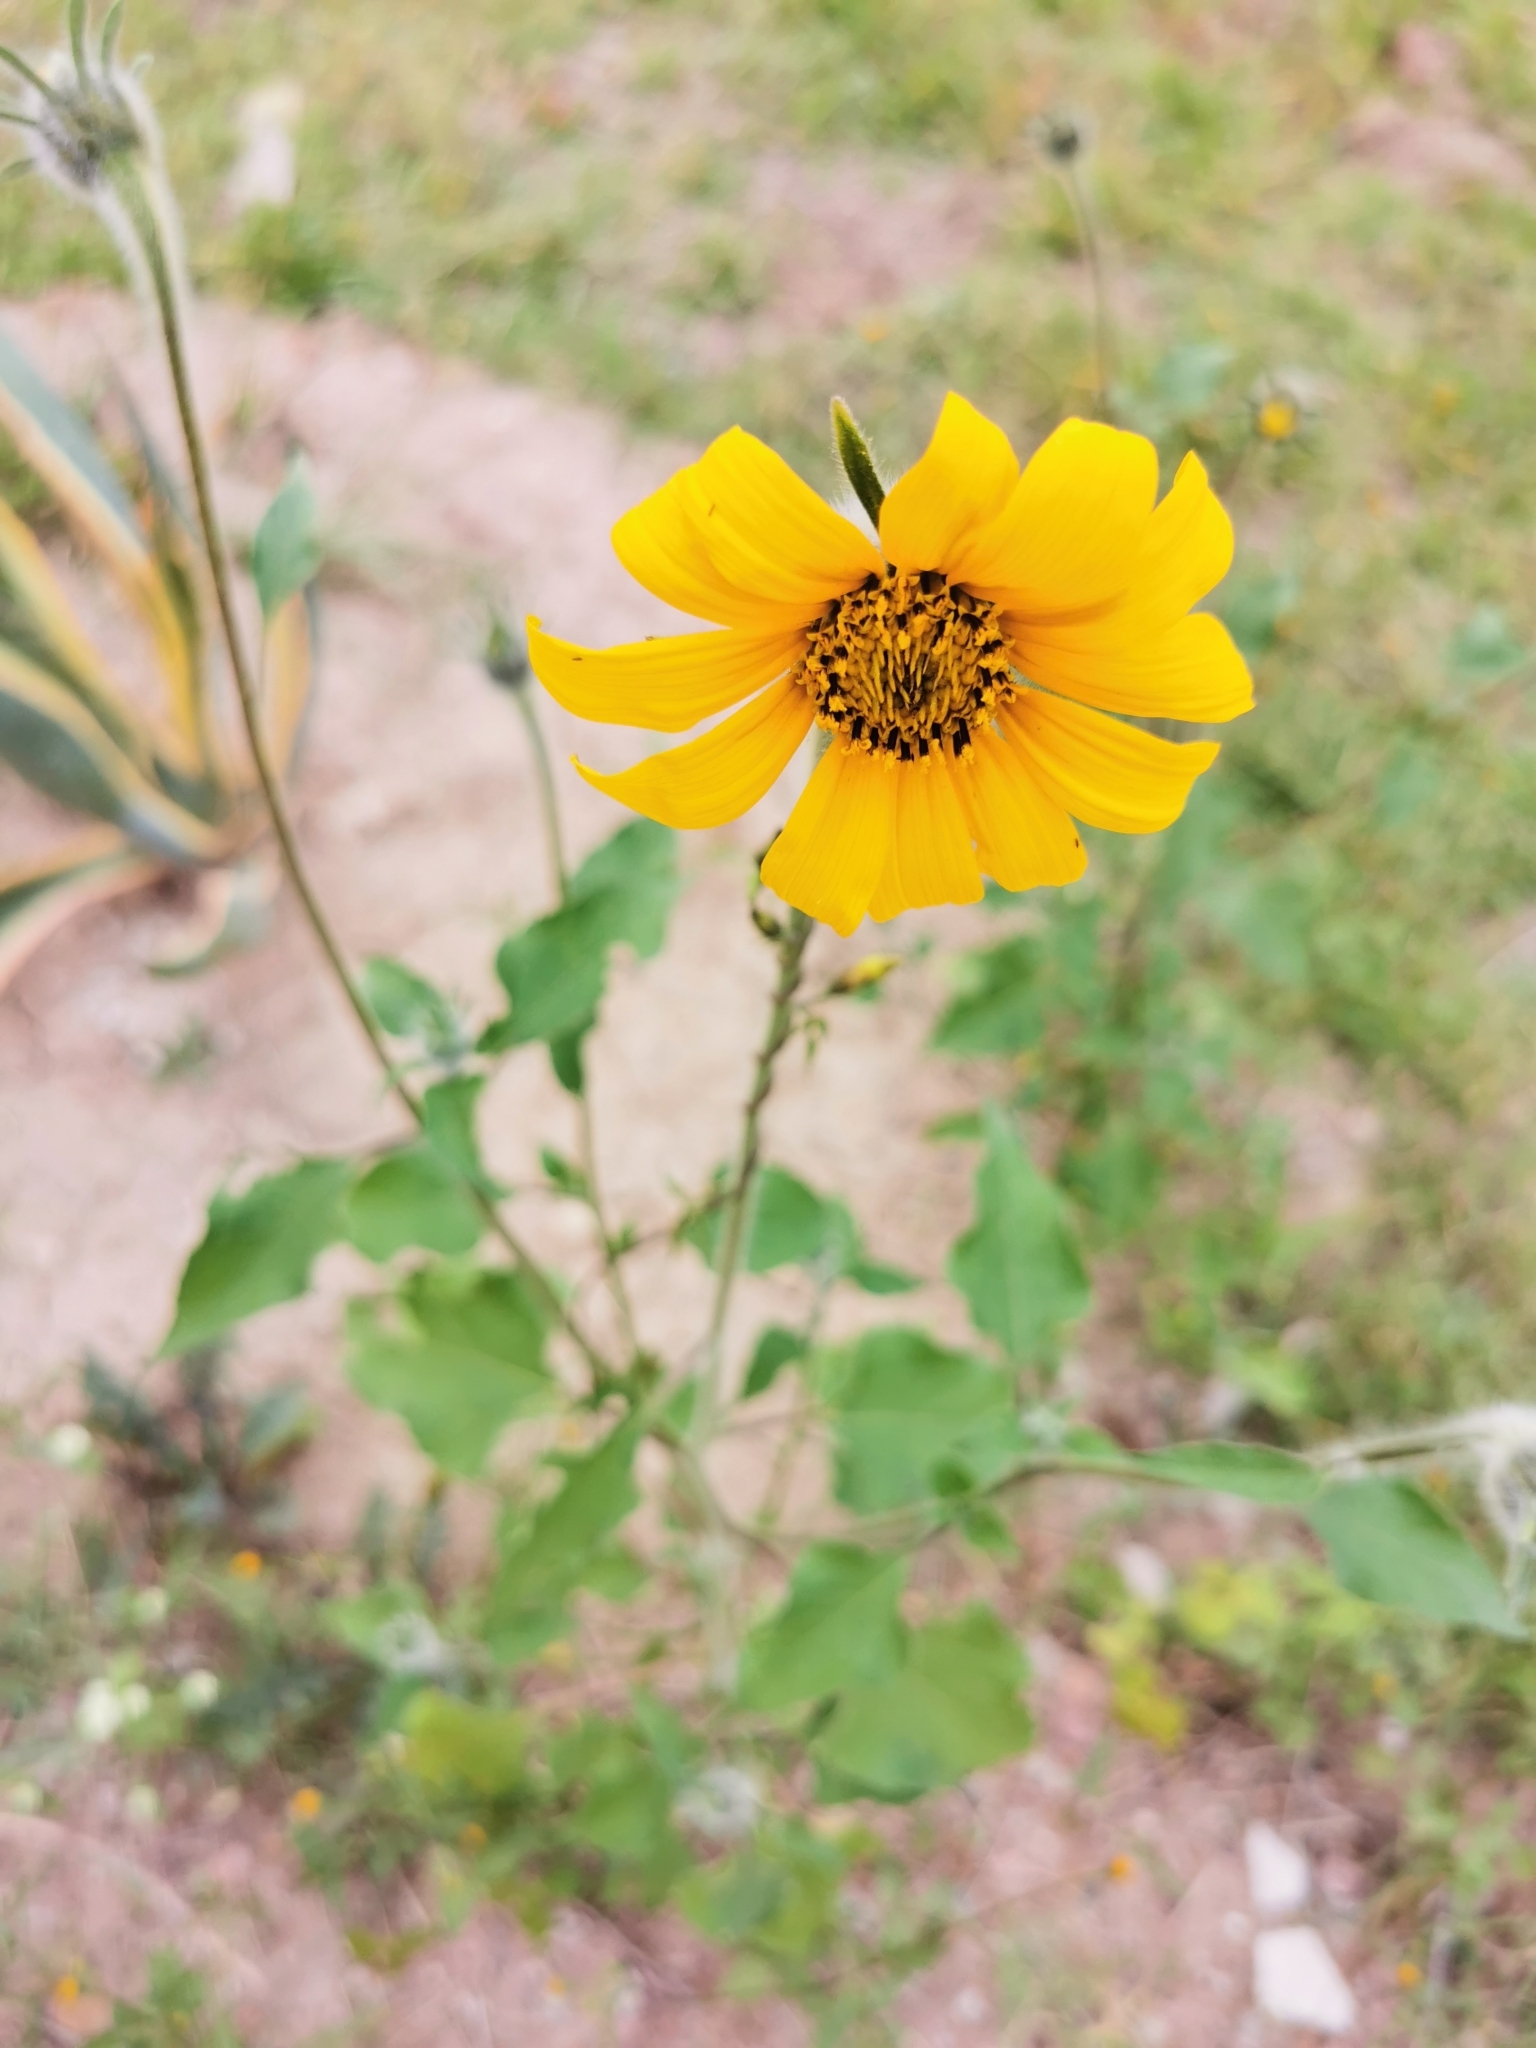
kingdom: Plantae
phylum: Tracheophyta
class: Magnoliopsida
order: Asterales
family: Asteraceae
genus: Tithonia
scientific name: Tithonia tubaeformis
